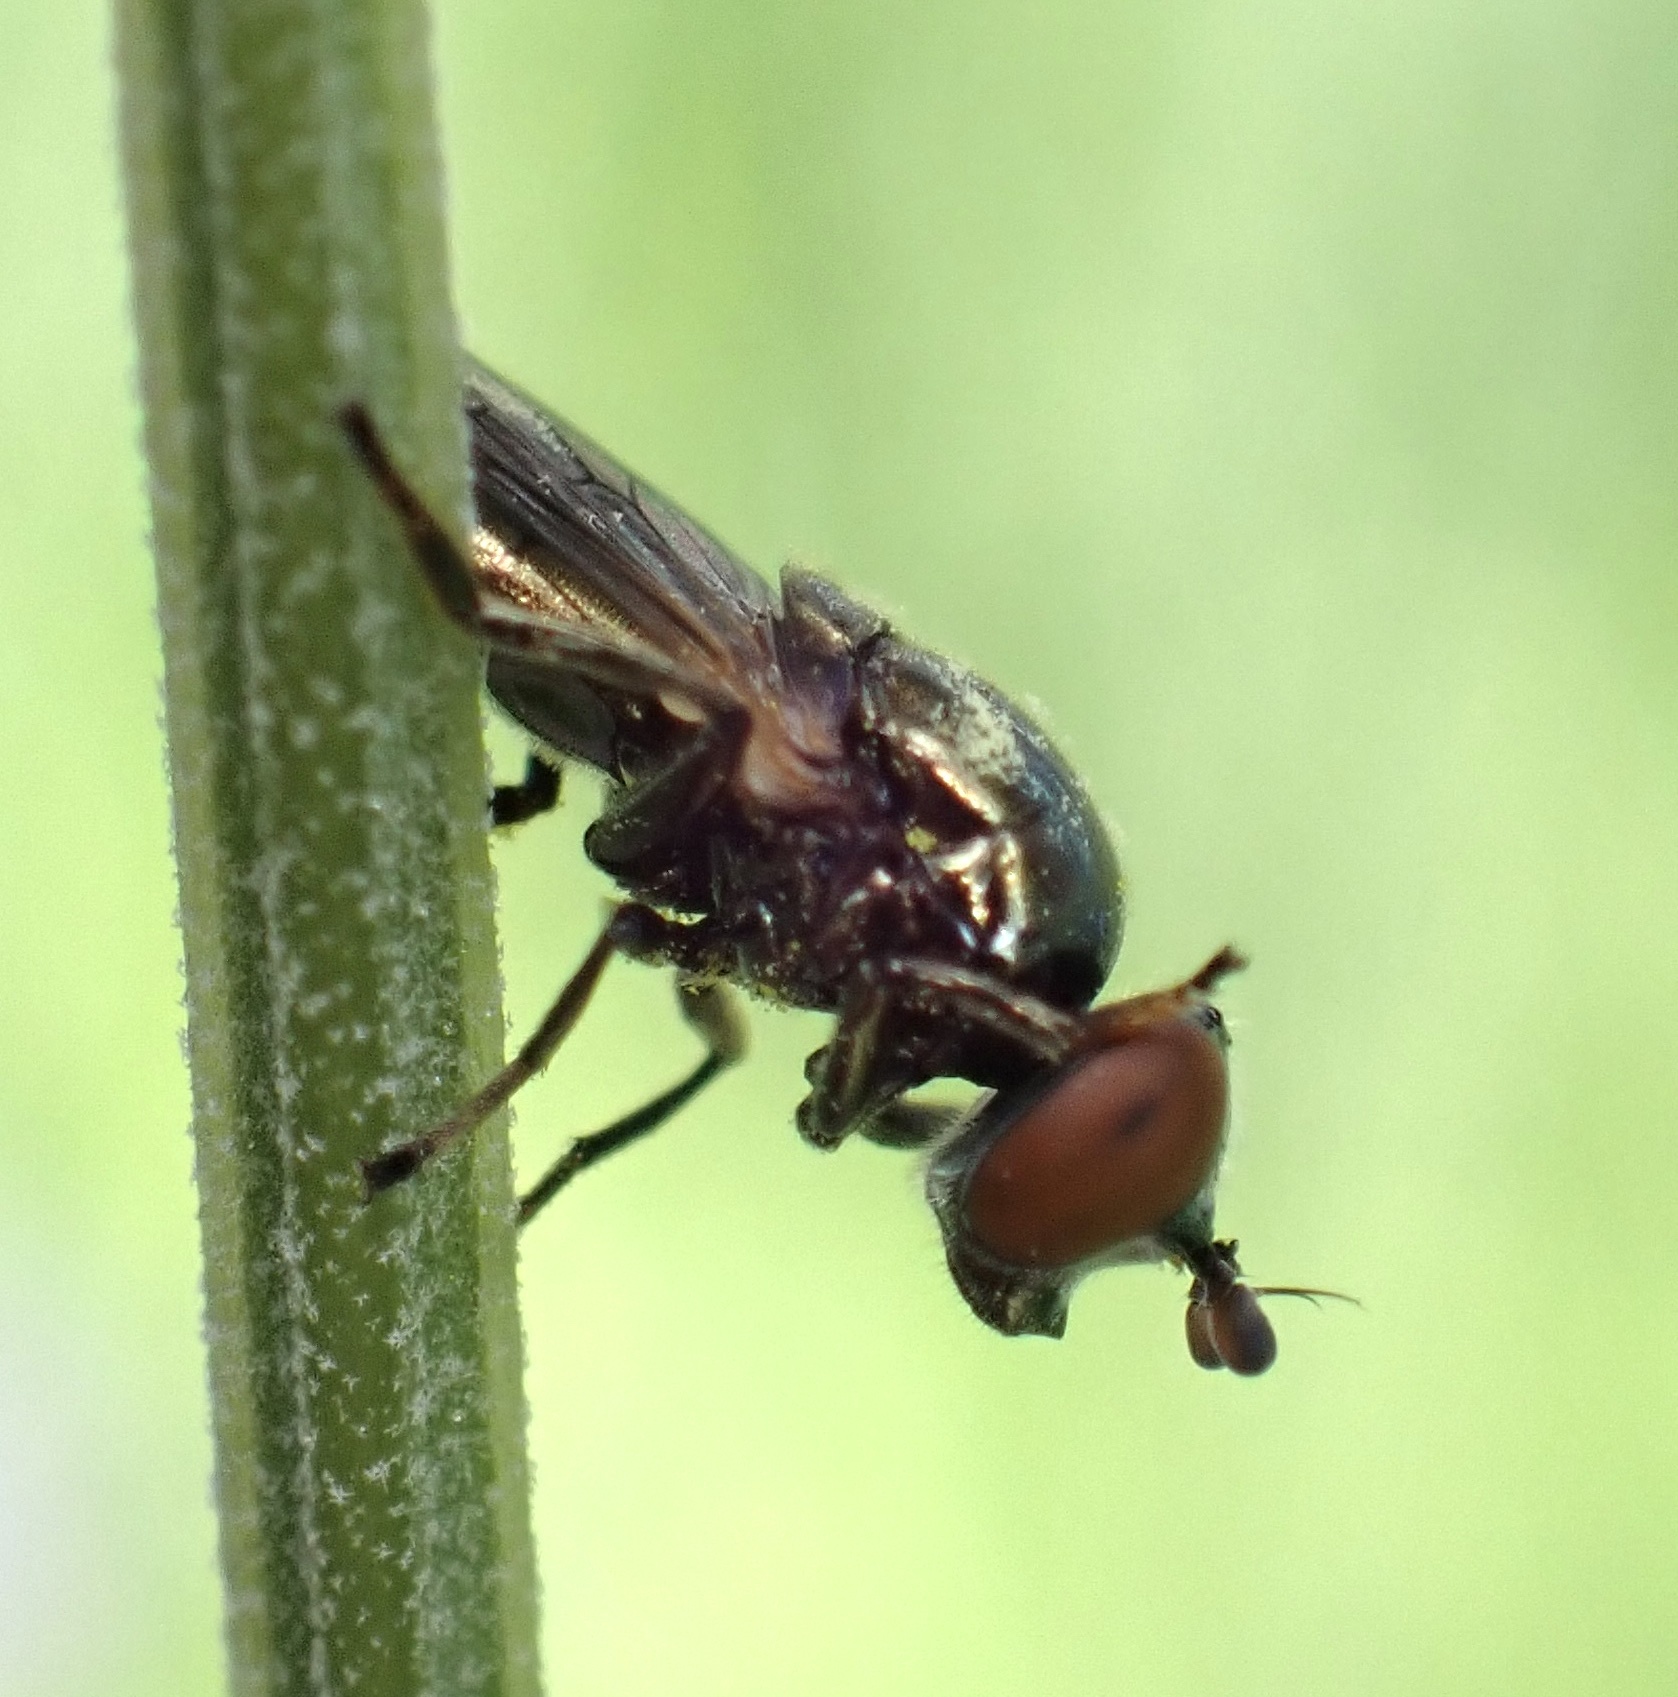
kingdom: Animalia
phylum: Arthropoda
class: Insecta
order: Diptera
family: Syrphidae
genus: Lejogaster
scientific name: Lejogaster tarsata
